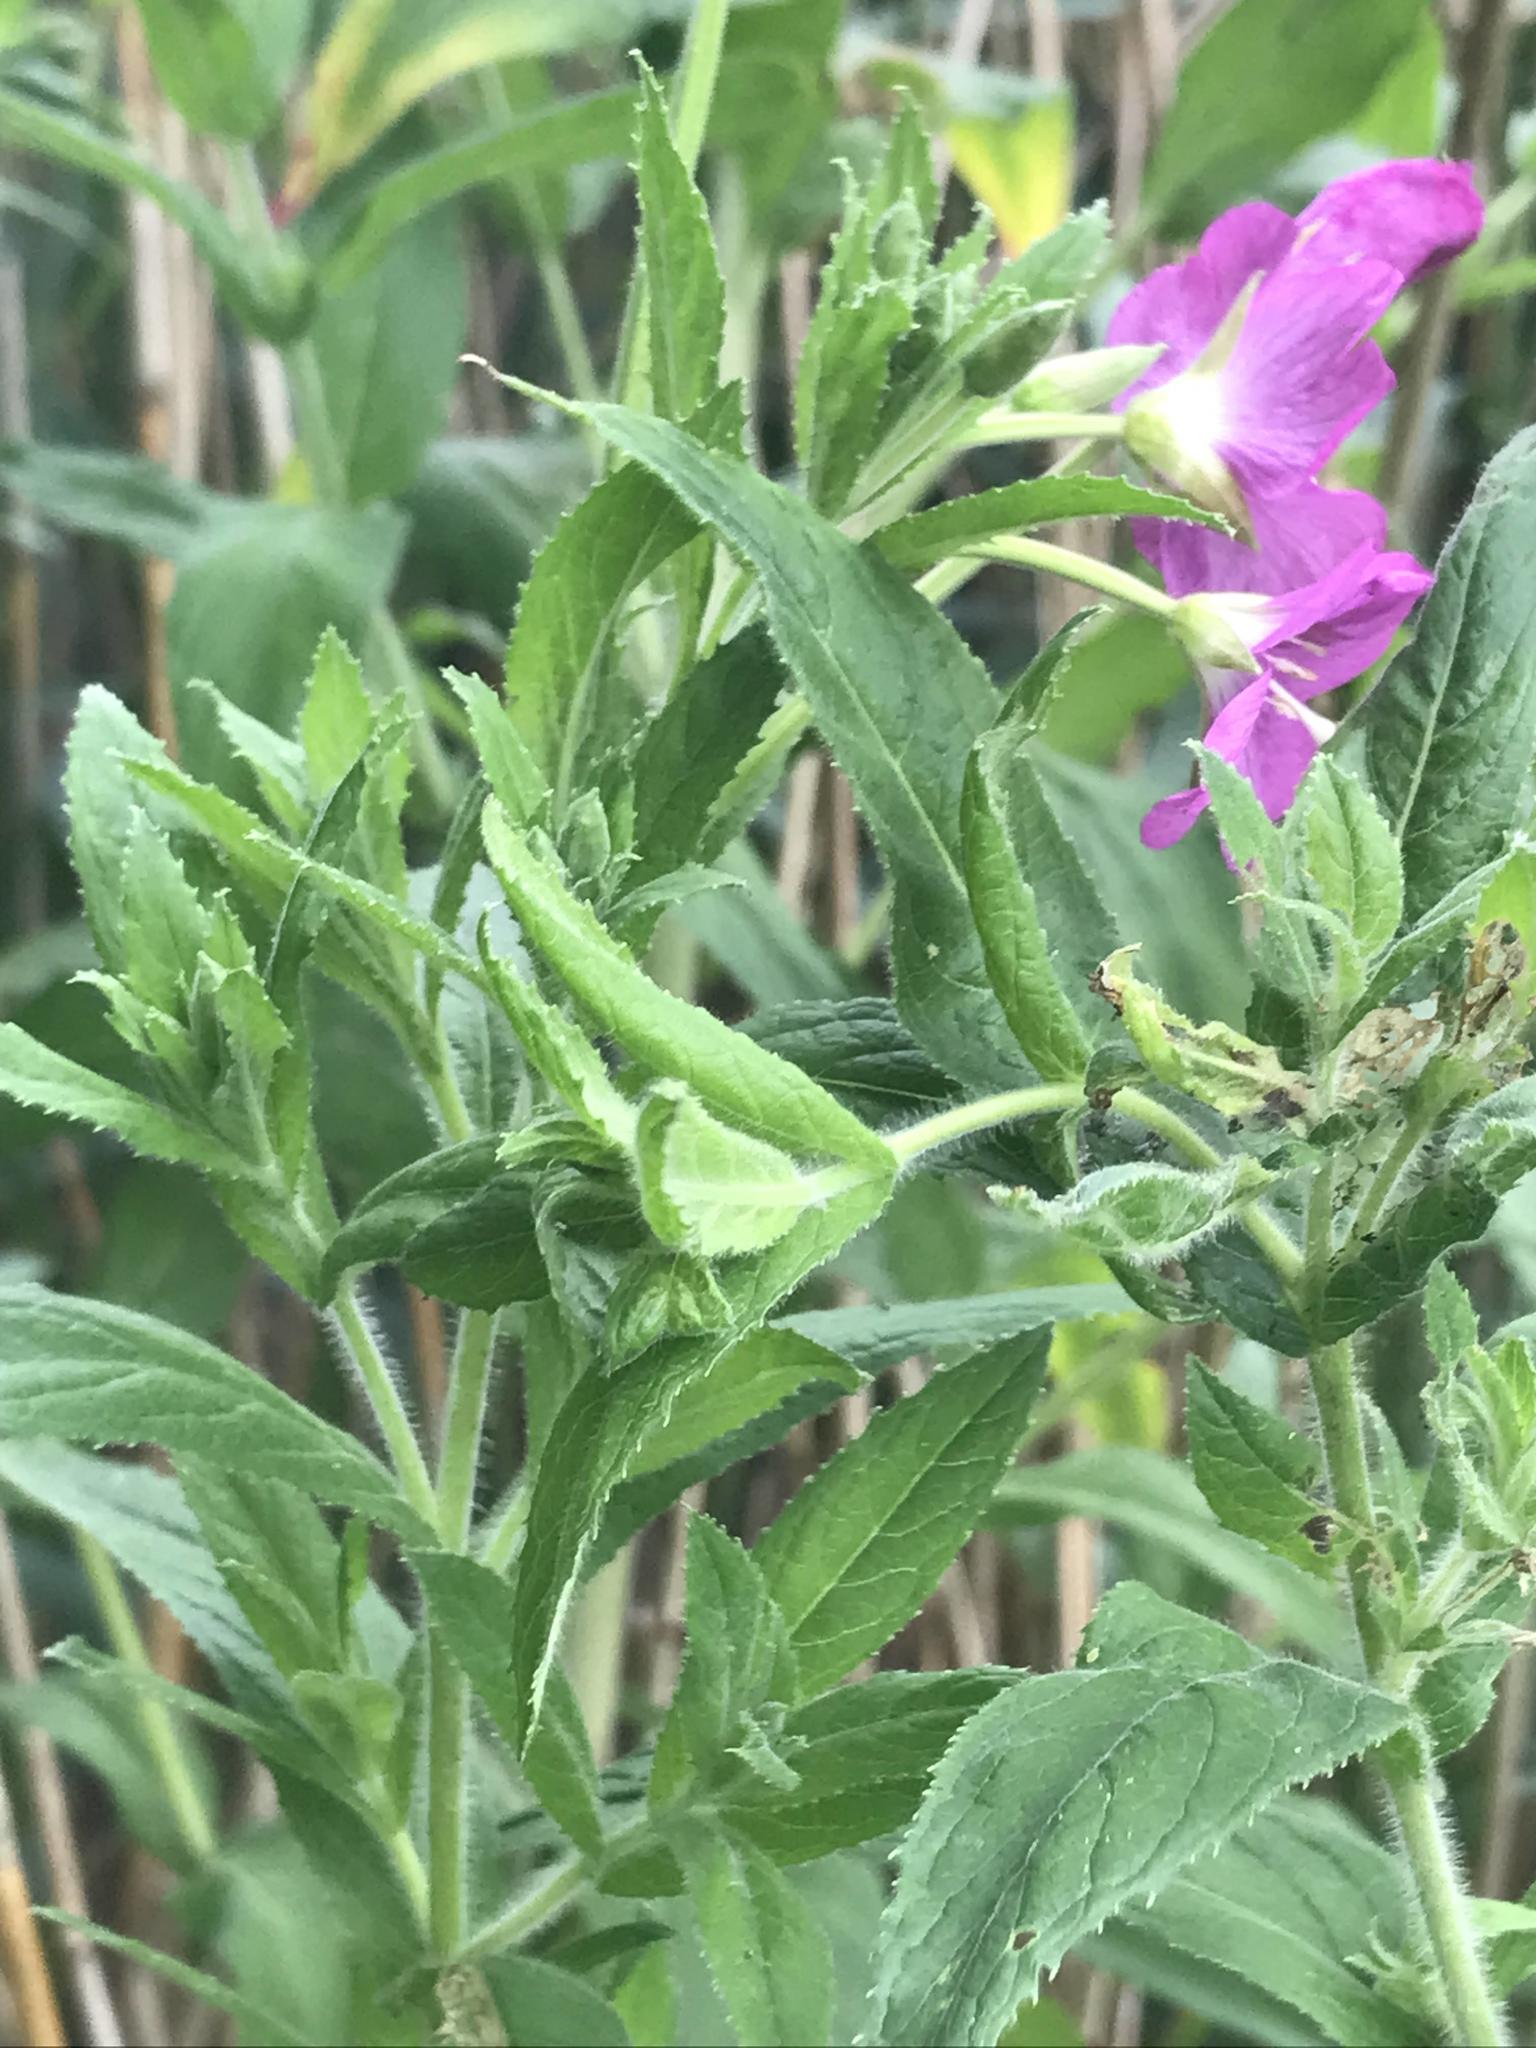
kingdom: Plantae
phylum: Tracheophyta
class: Magnoliopsida
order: Myrtales
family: Onagraceae
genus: Epilobium
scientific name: Epilobium hirsutum
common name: Great willowherb
